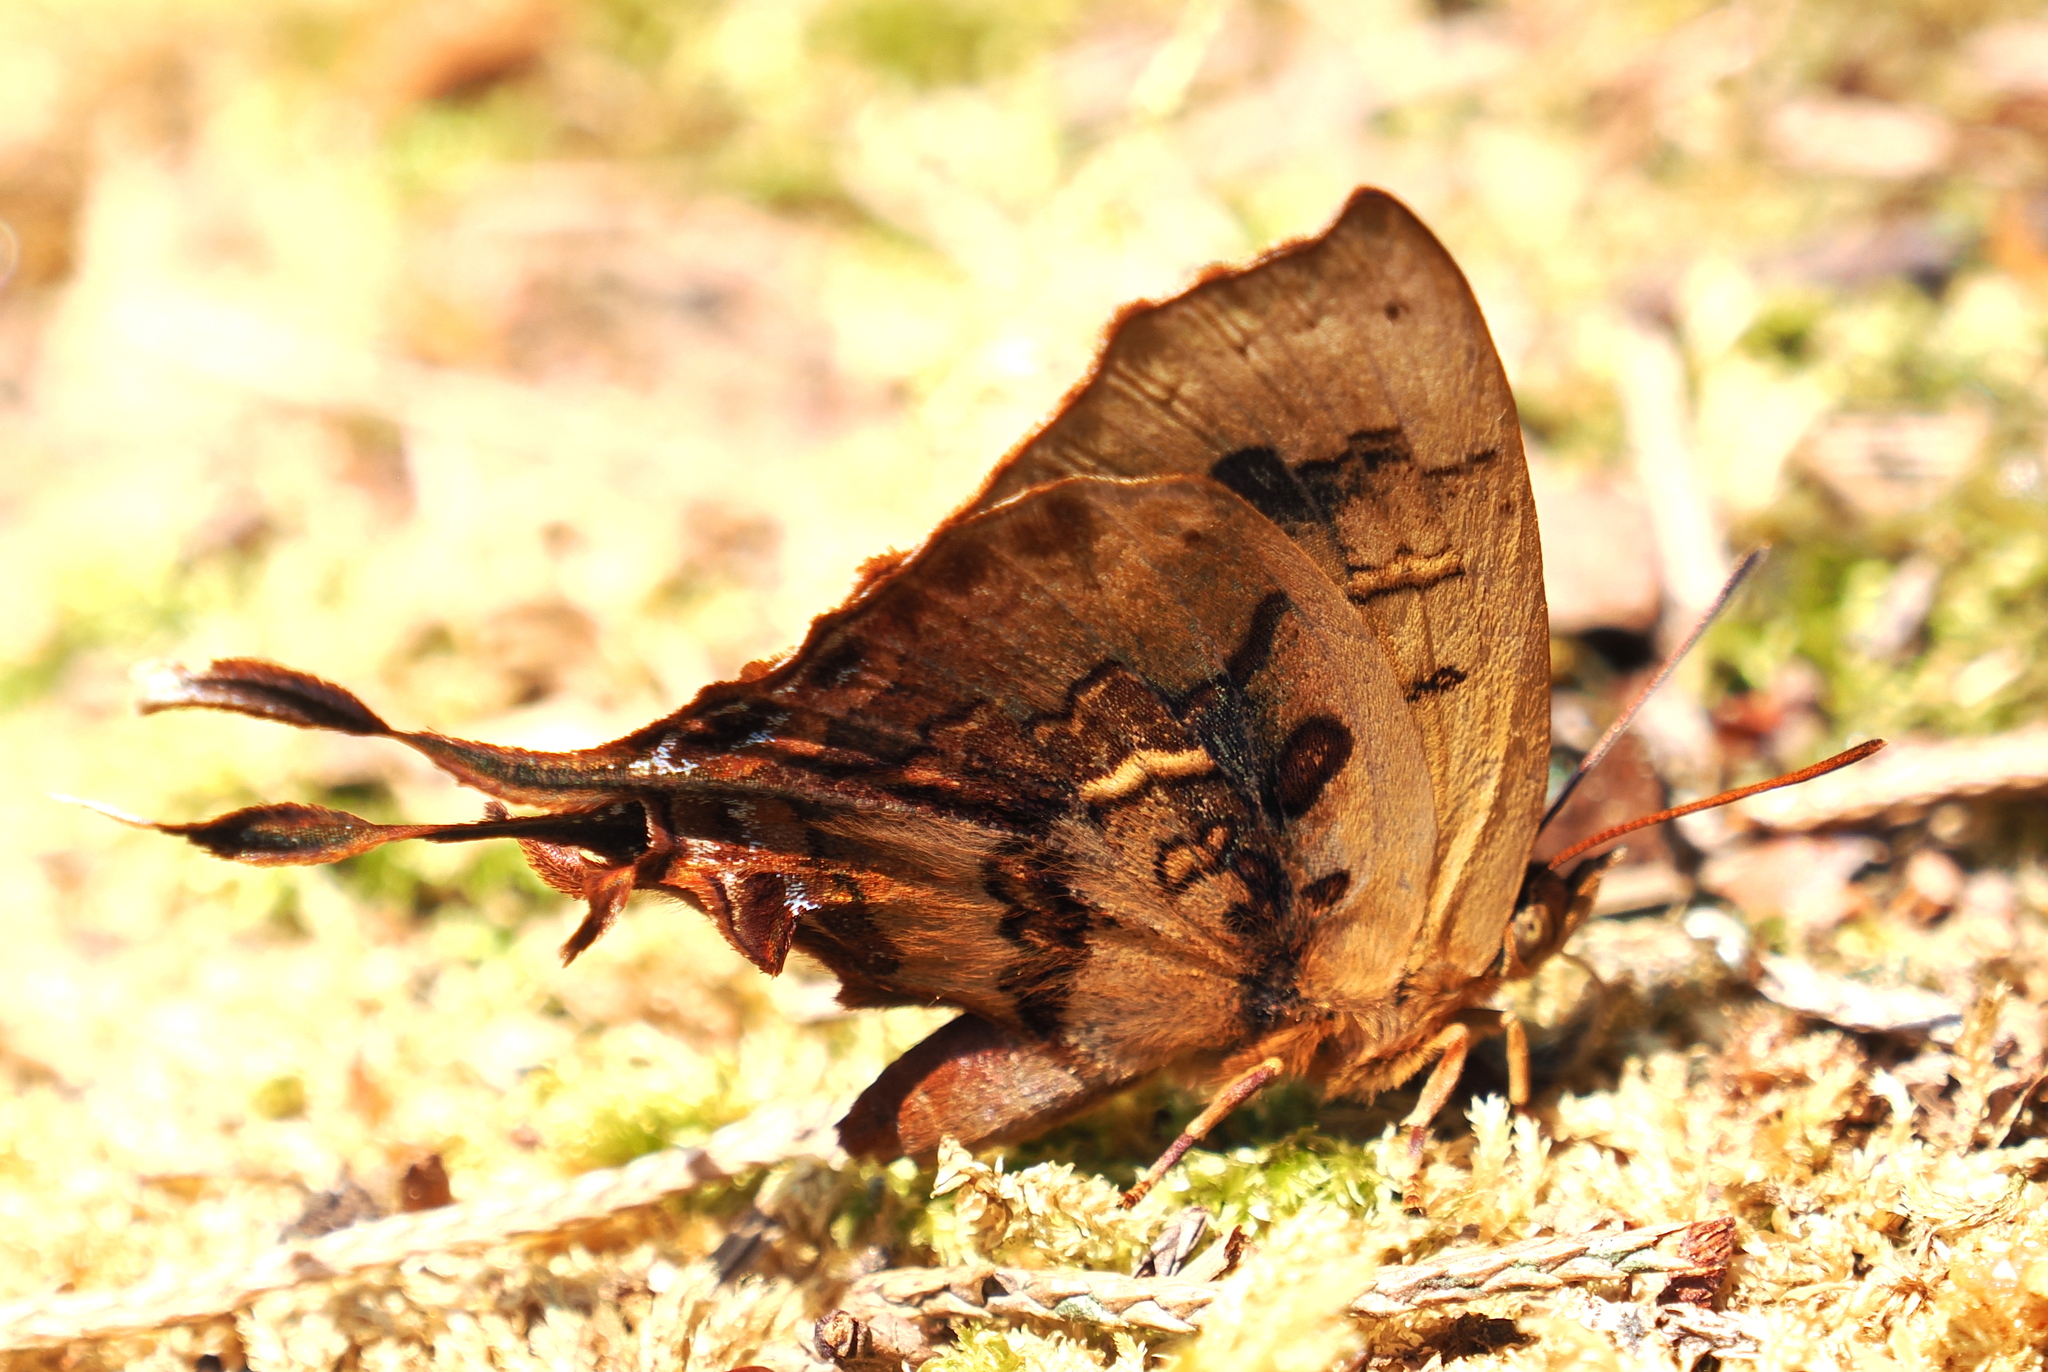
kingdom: Animalia
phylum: Arthropoda
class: Insecta
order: Lepidoptera
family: Lycaenidae
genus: Cheritrella
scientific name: Cheritrella truncipennis
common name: Truncate imperial
